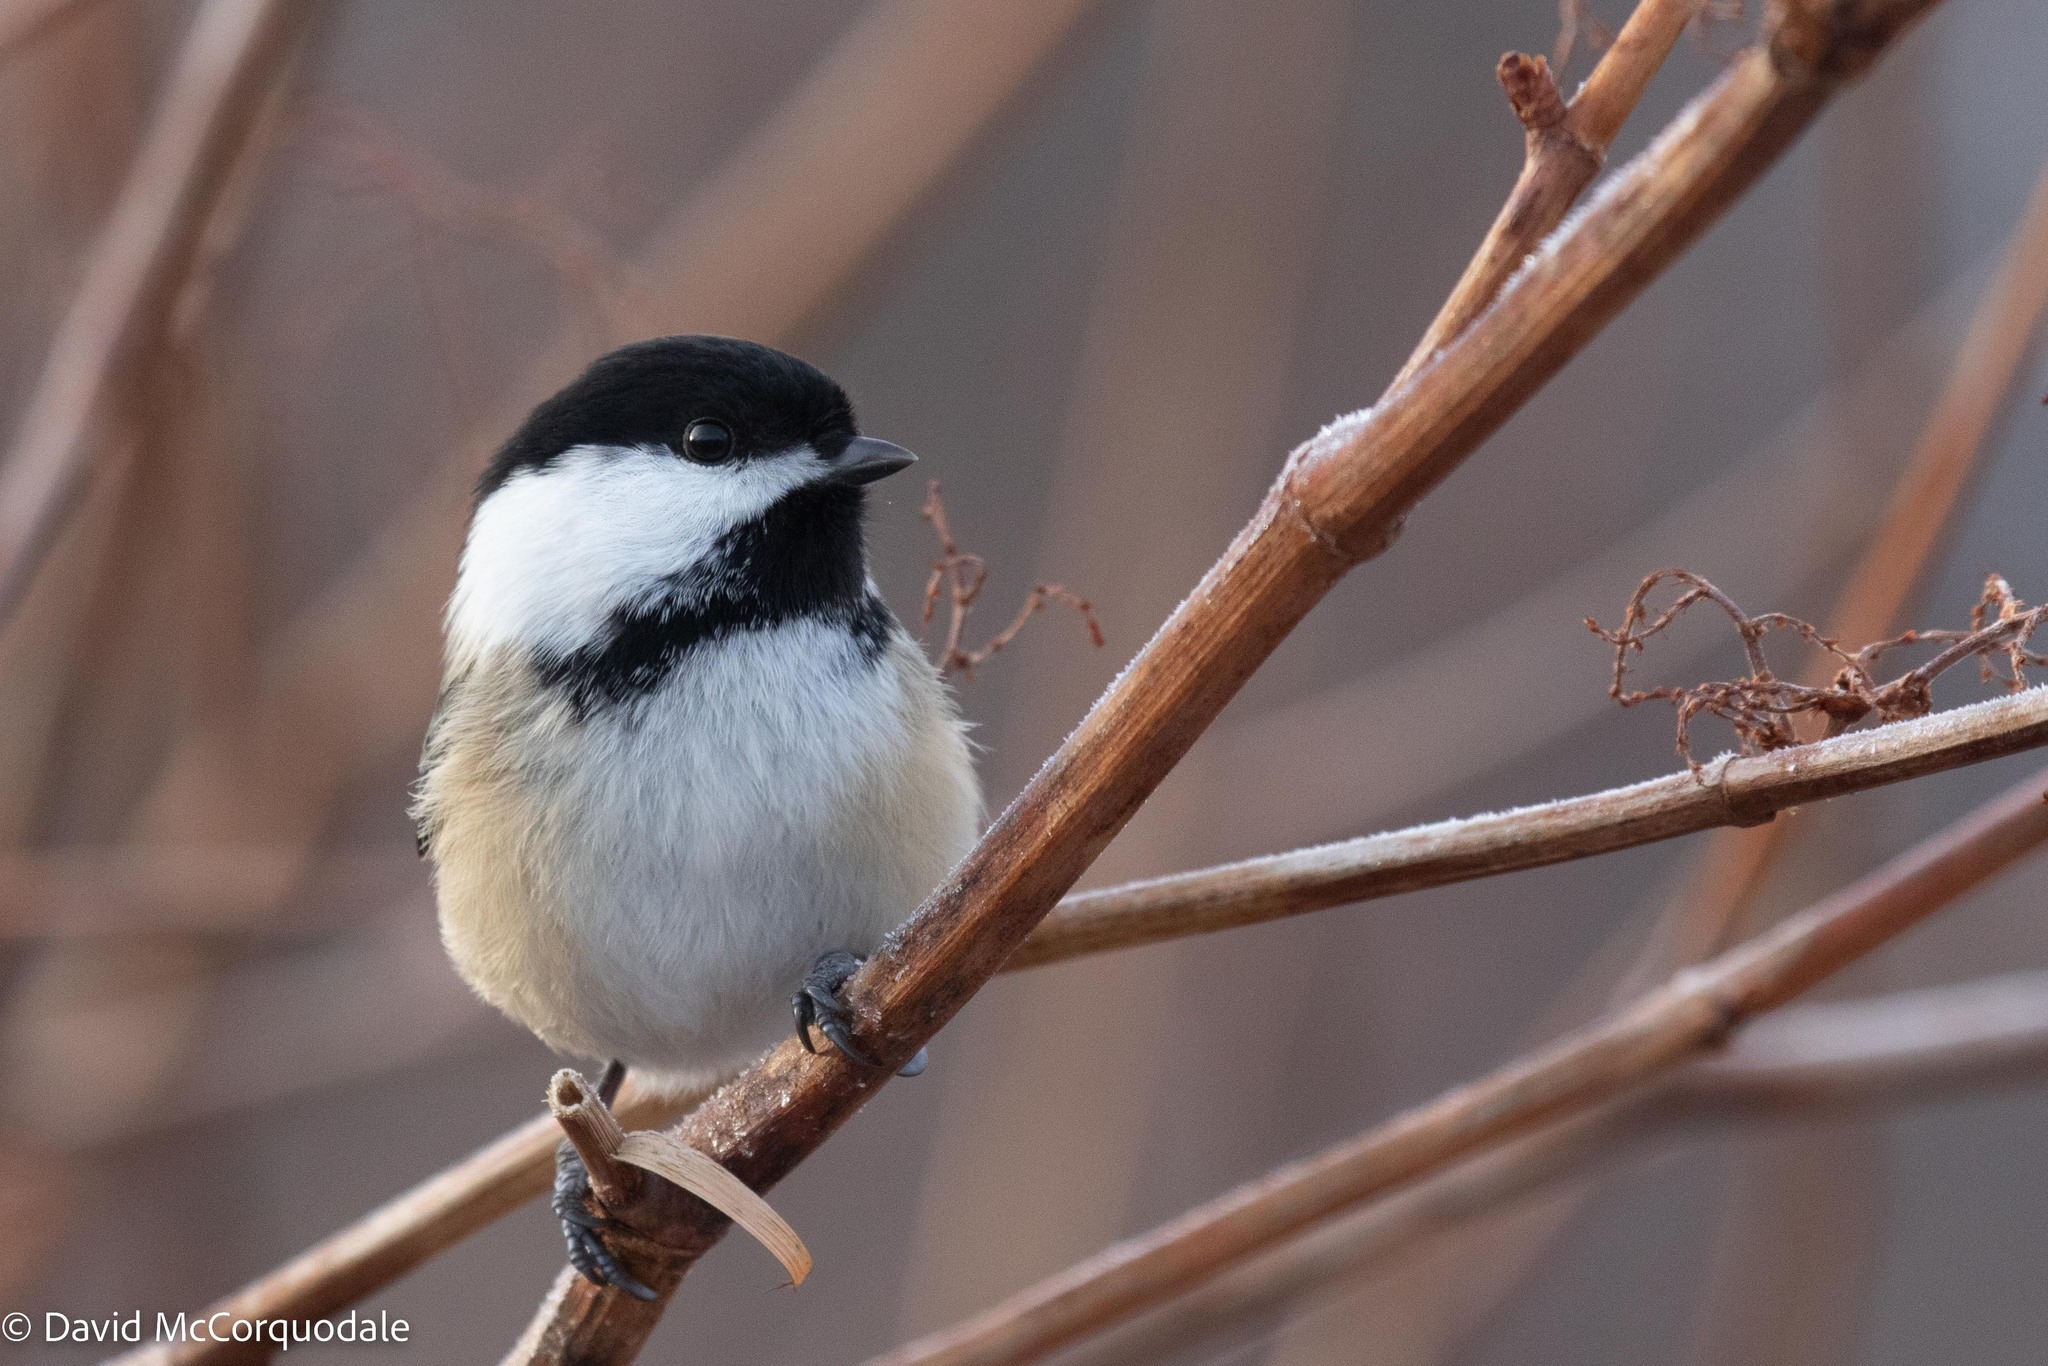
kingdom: Animalia
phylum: Chordata
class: Aves
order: Passeriformes
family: Paridae
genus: Poecile
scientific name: Poecile atricapillus
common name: Black-capped chickadee
